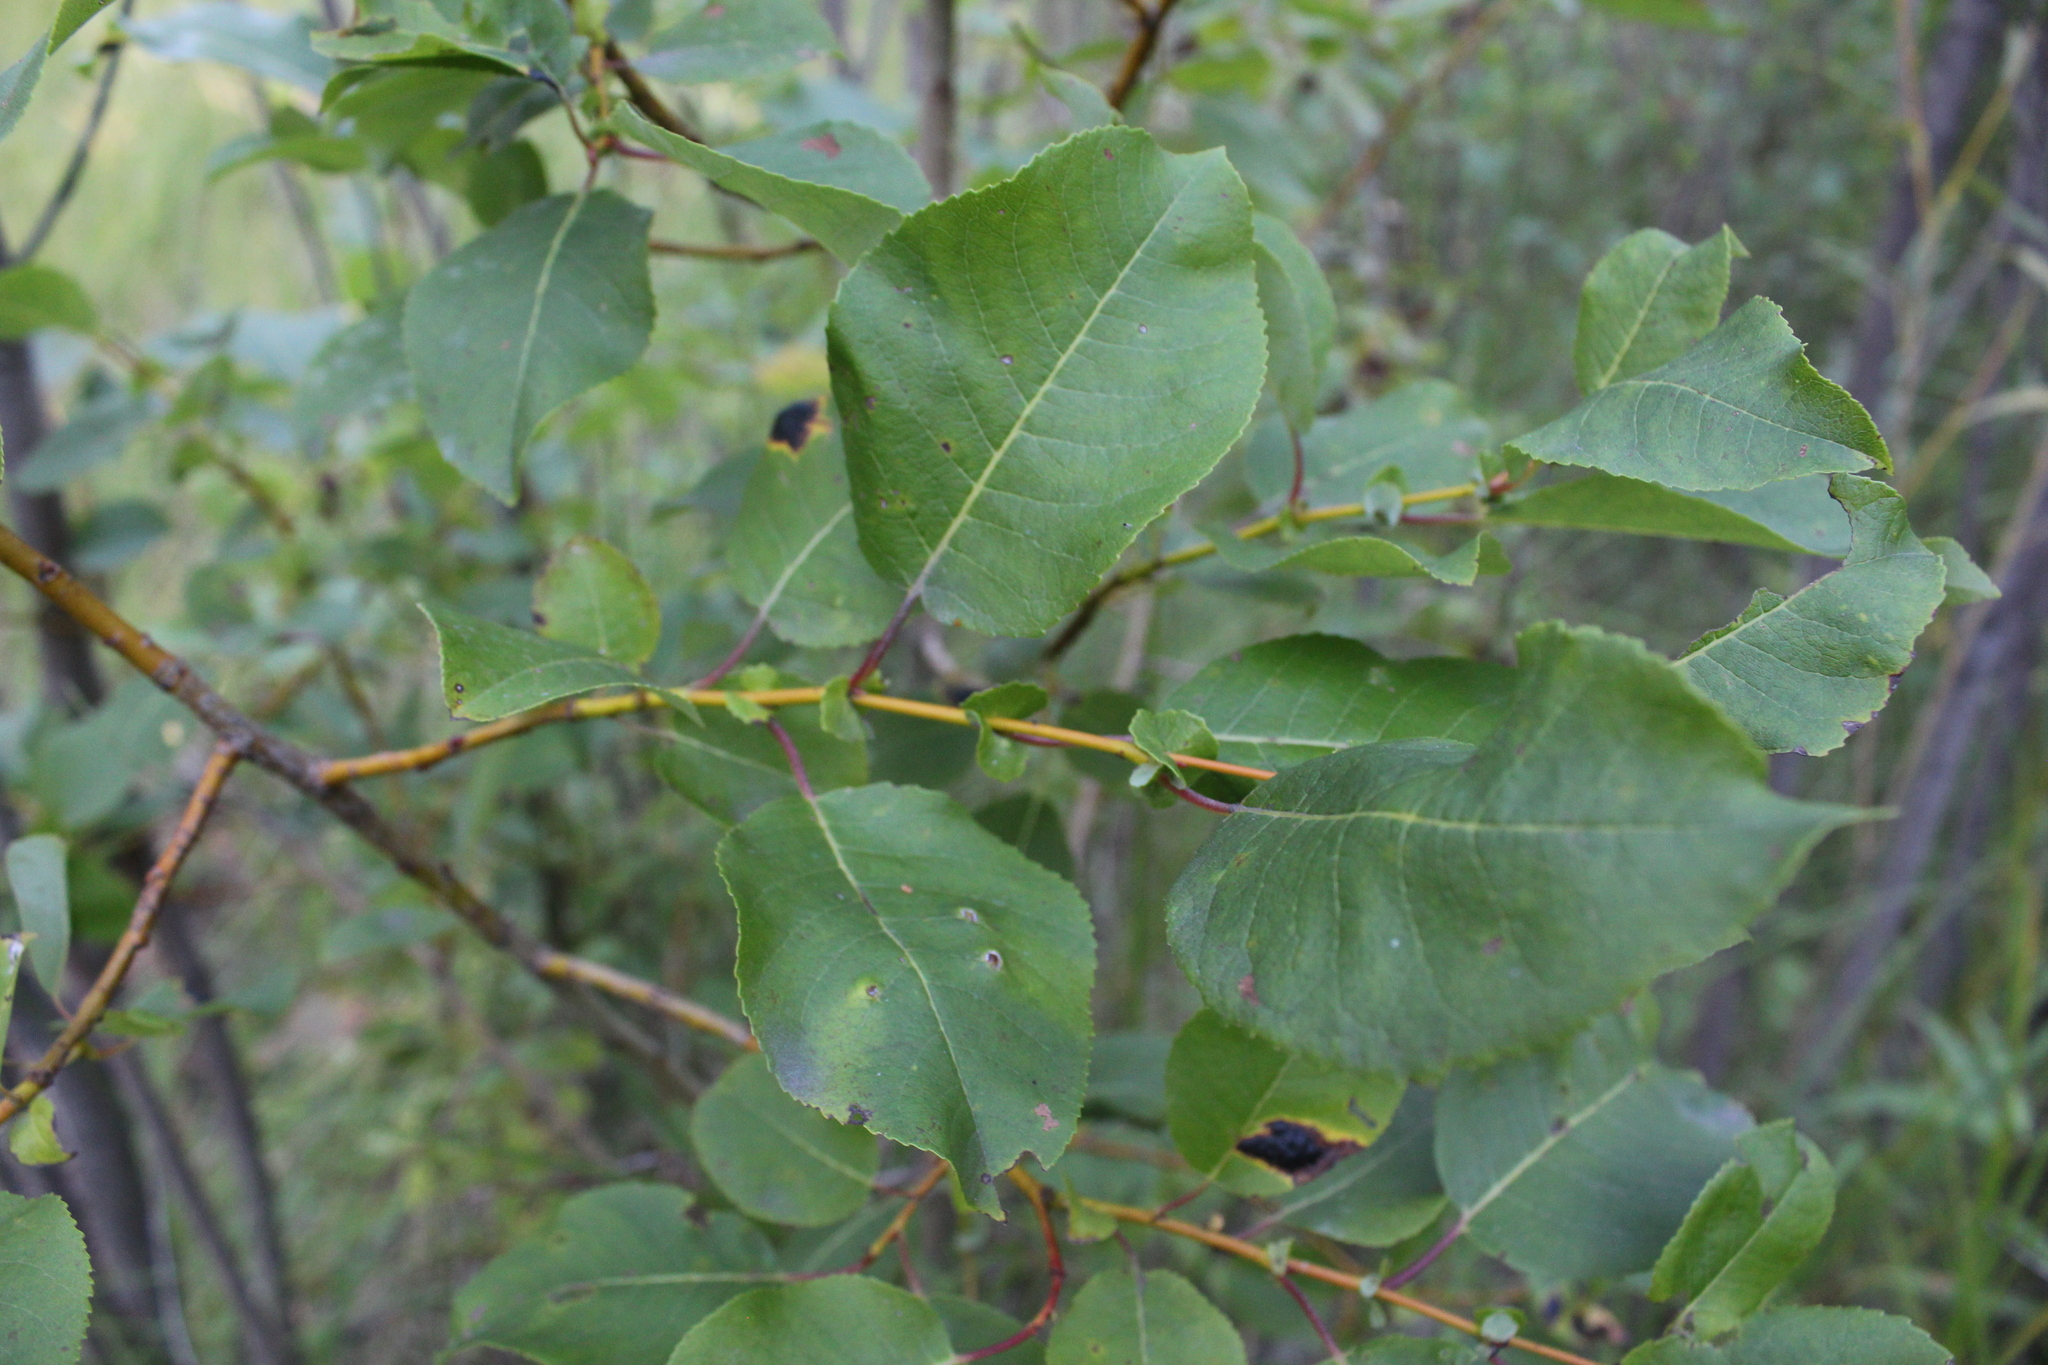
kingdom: Plantae
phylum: Tracheophyta
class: Magnoliopsida
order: Malpighiales
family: Salicaceae
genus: Salix
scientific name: Salix pyrolifolia
